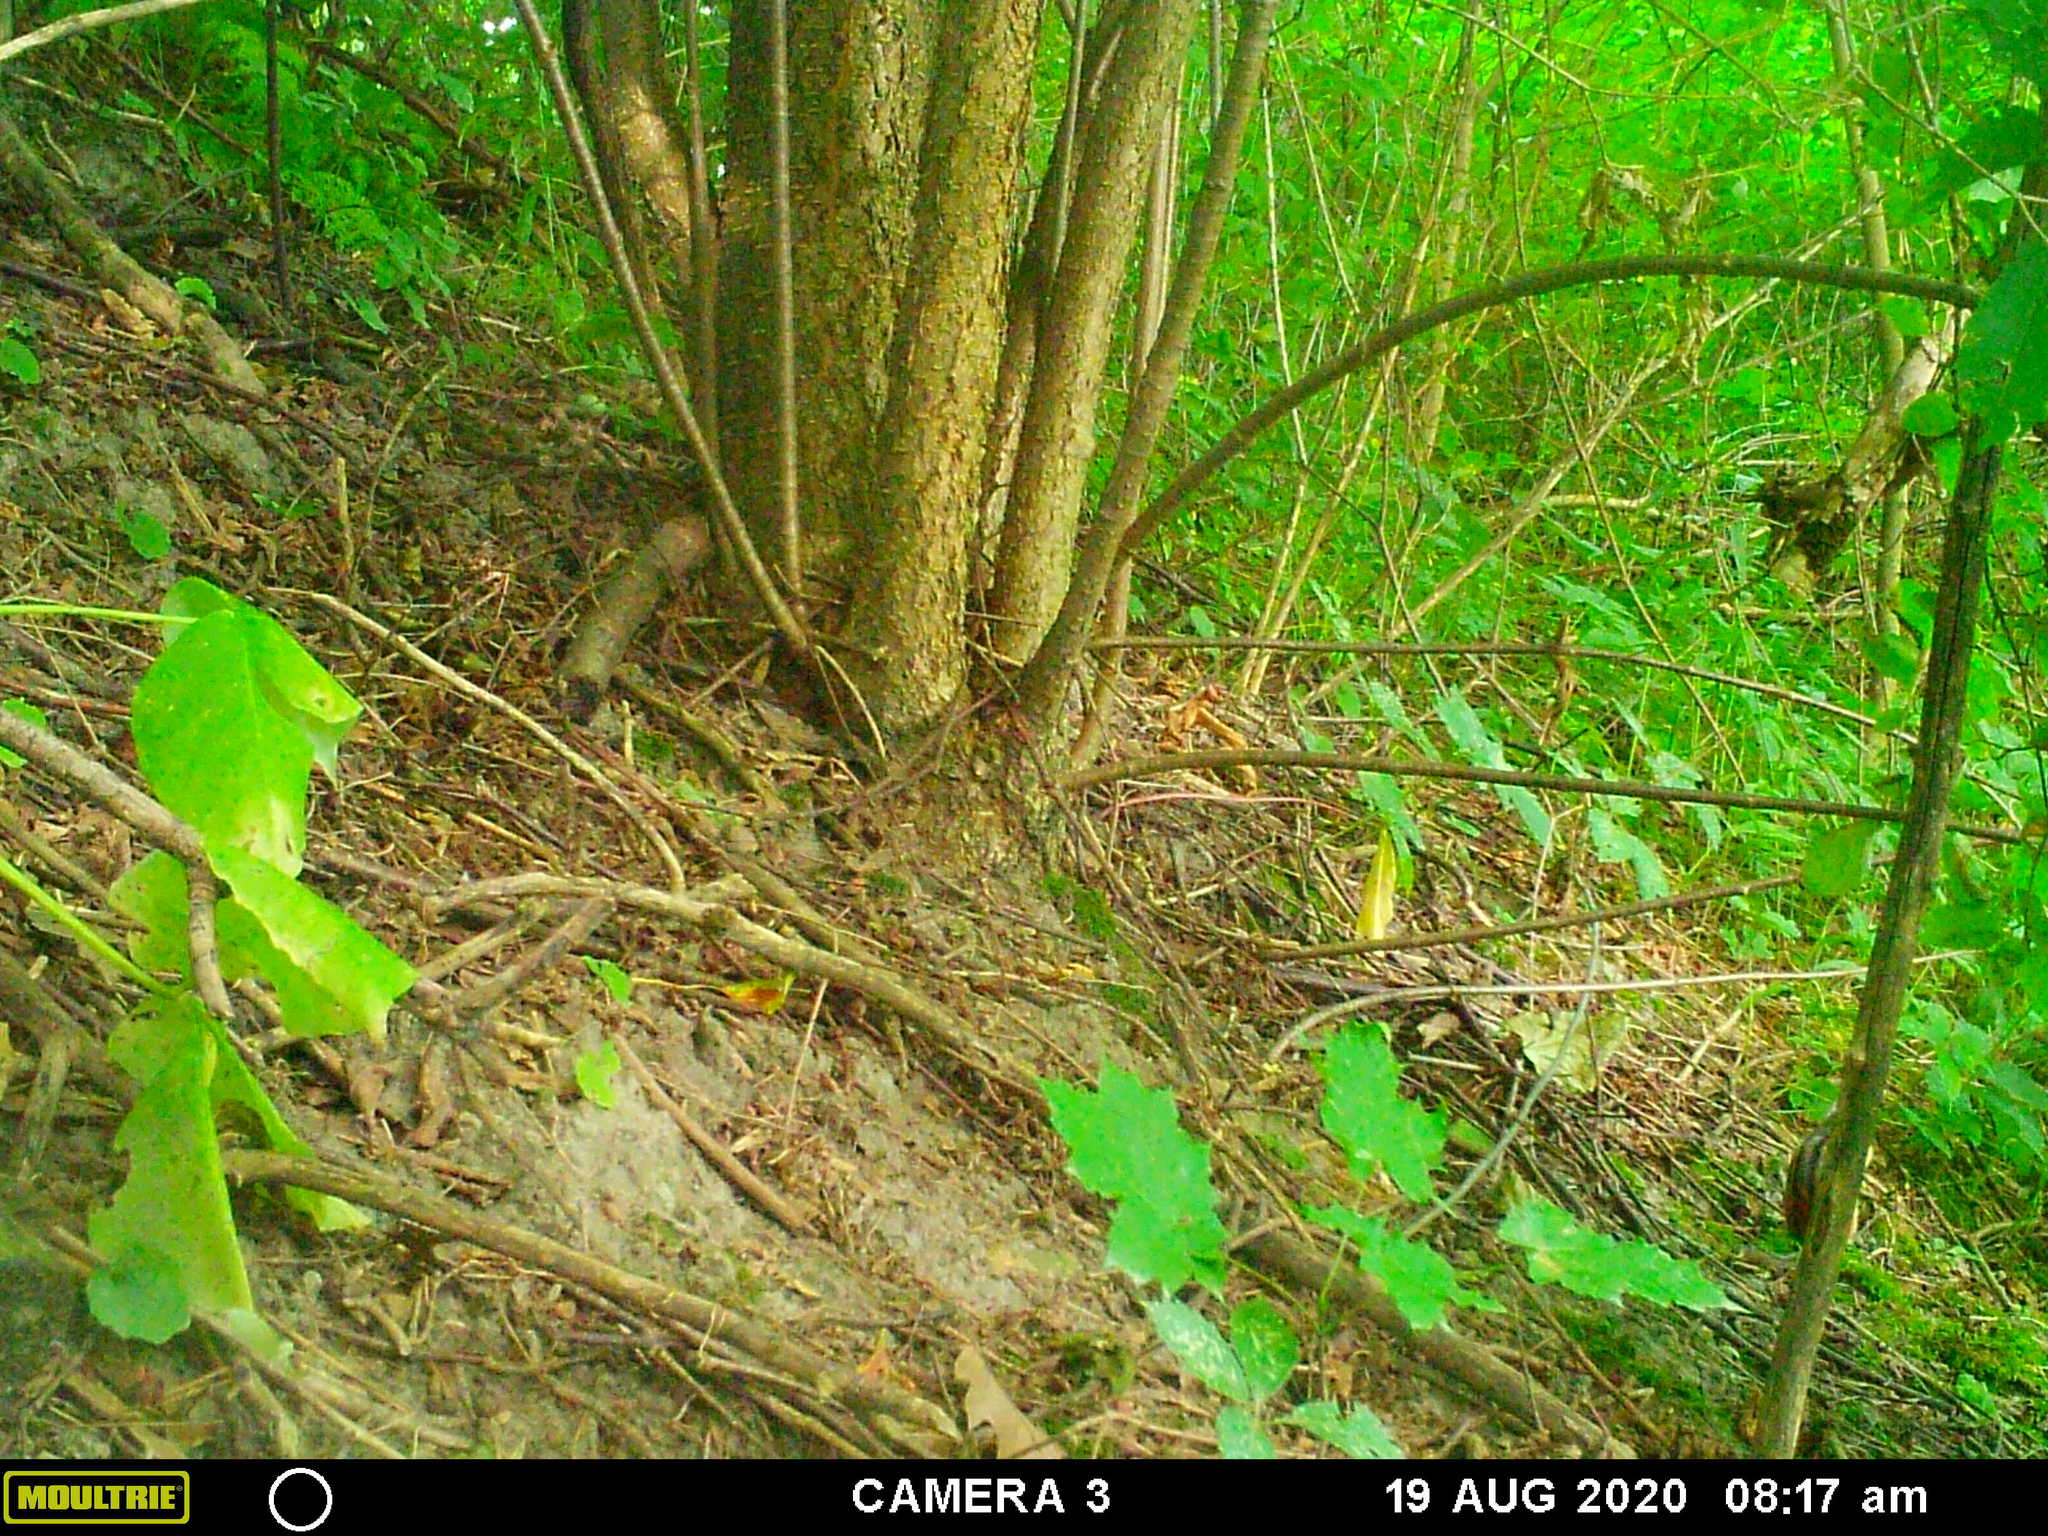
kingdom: Animalia
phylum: Chordata
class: Mammalia
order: Rodentia
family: Sciuridae
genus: Tamias
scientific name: Tamias striatus
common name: Eastern chipmunk
